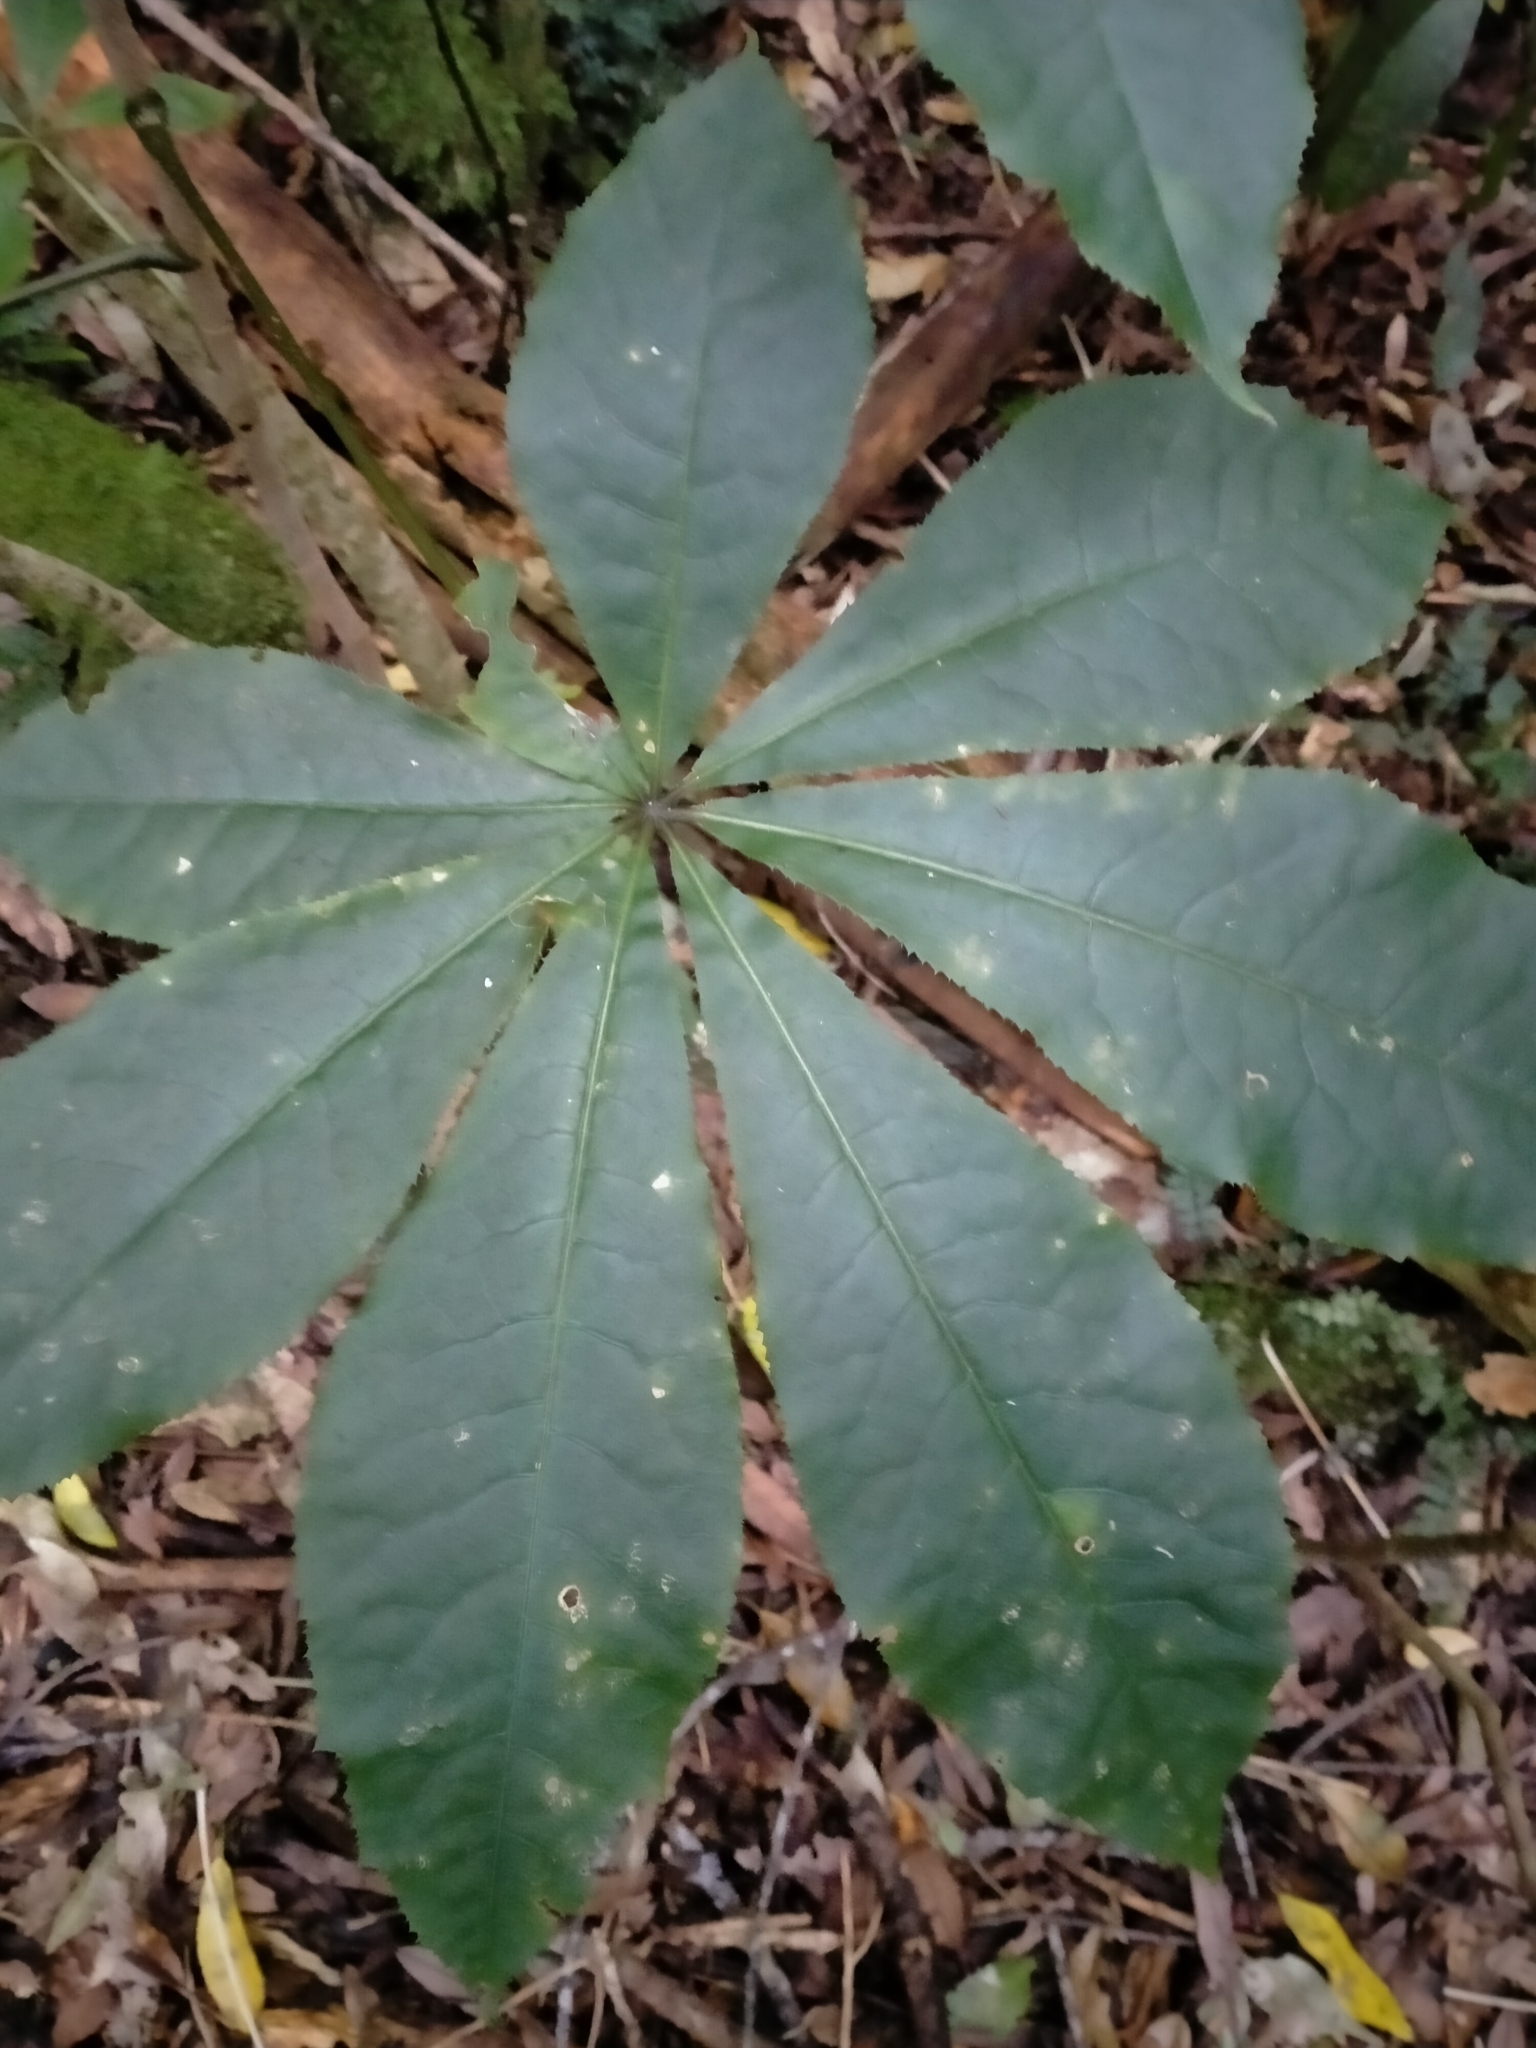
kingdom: Plantae
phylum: Tracheophyta
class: Magnoliopsida
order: Apiales
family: Araliaceae
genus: Schefflera
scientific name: Schefflera digitata
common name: Pate
